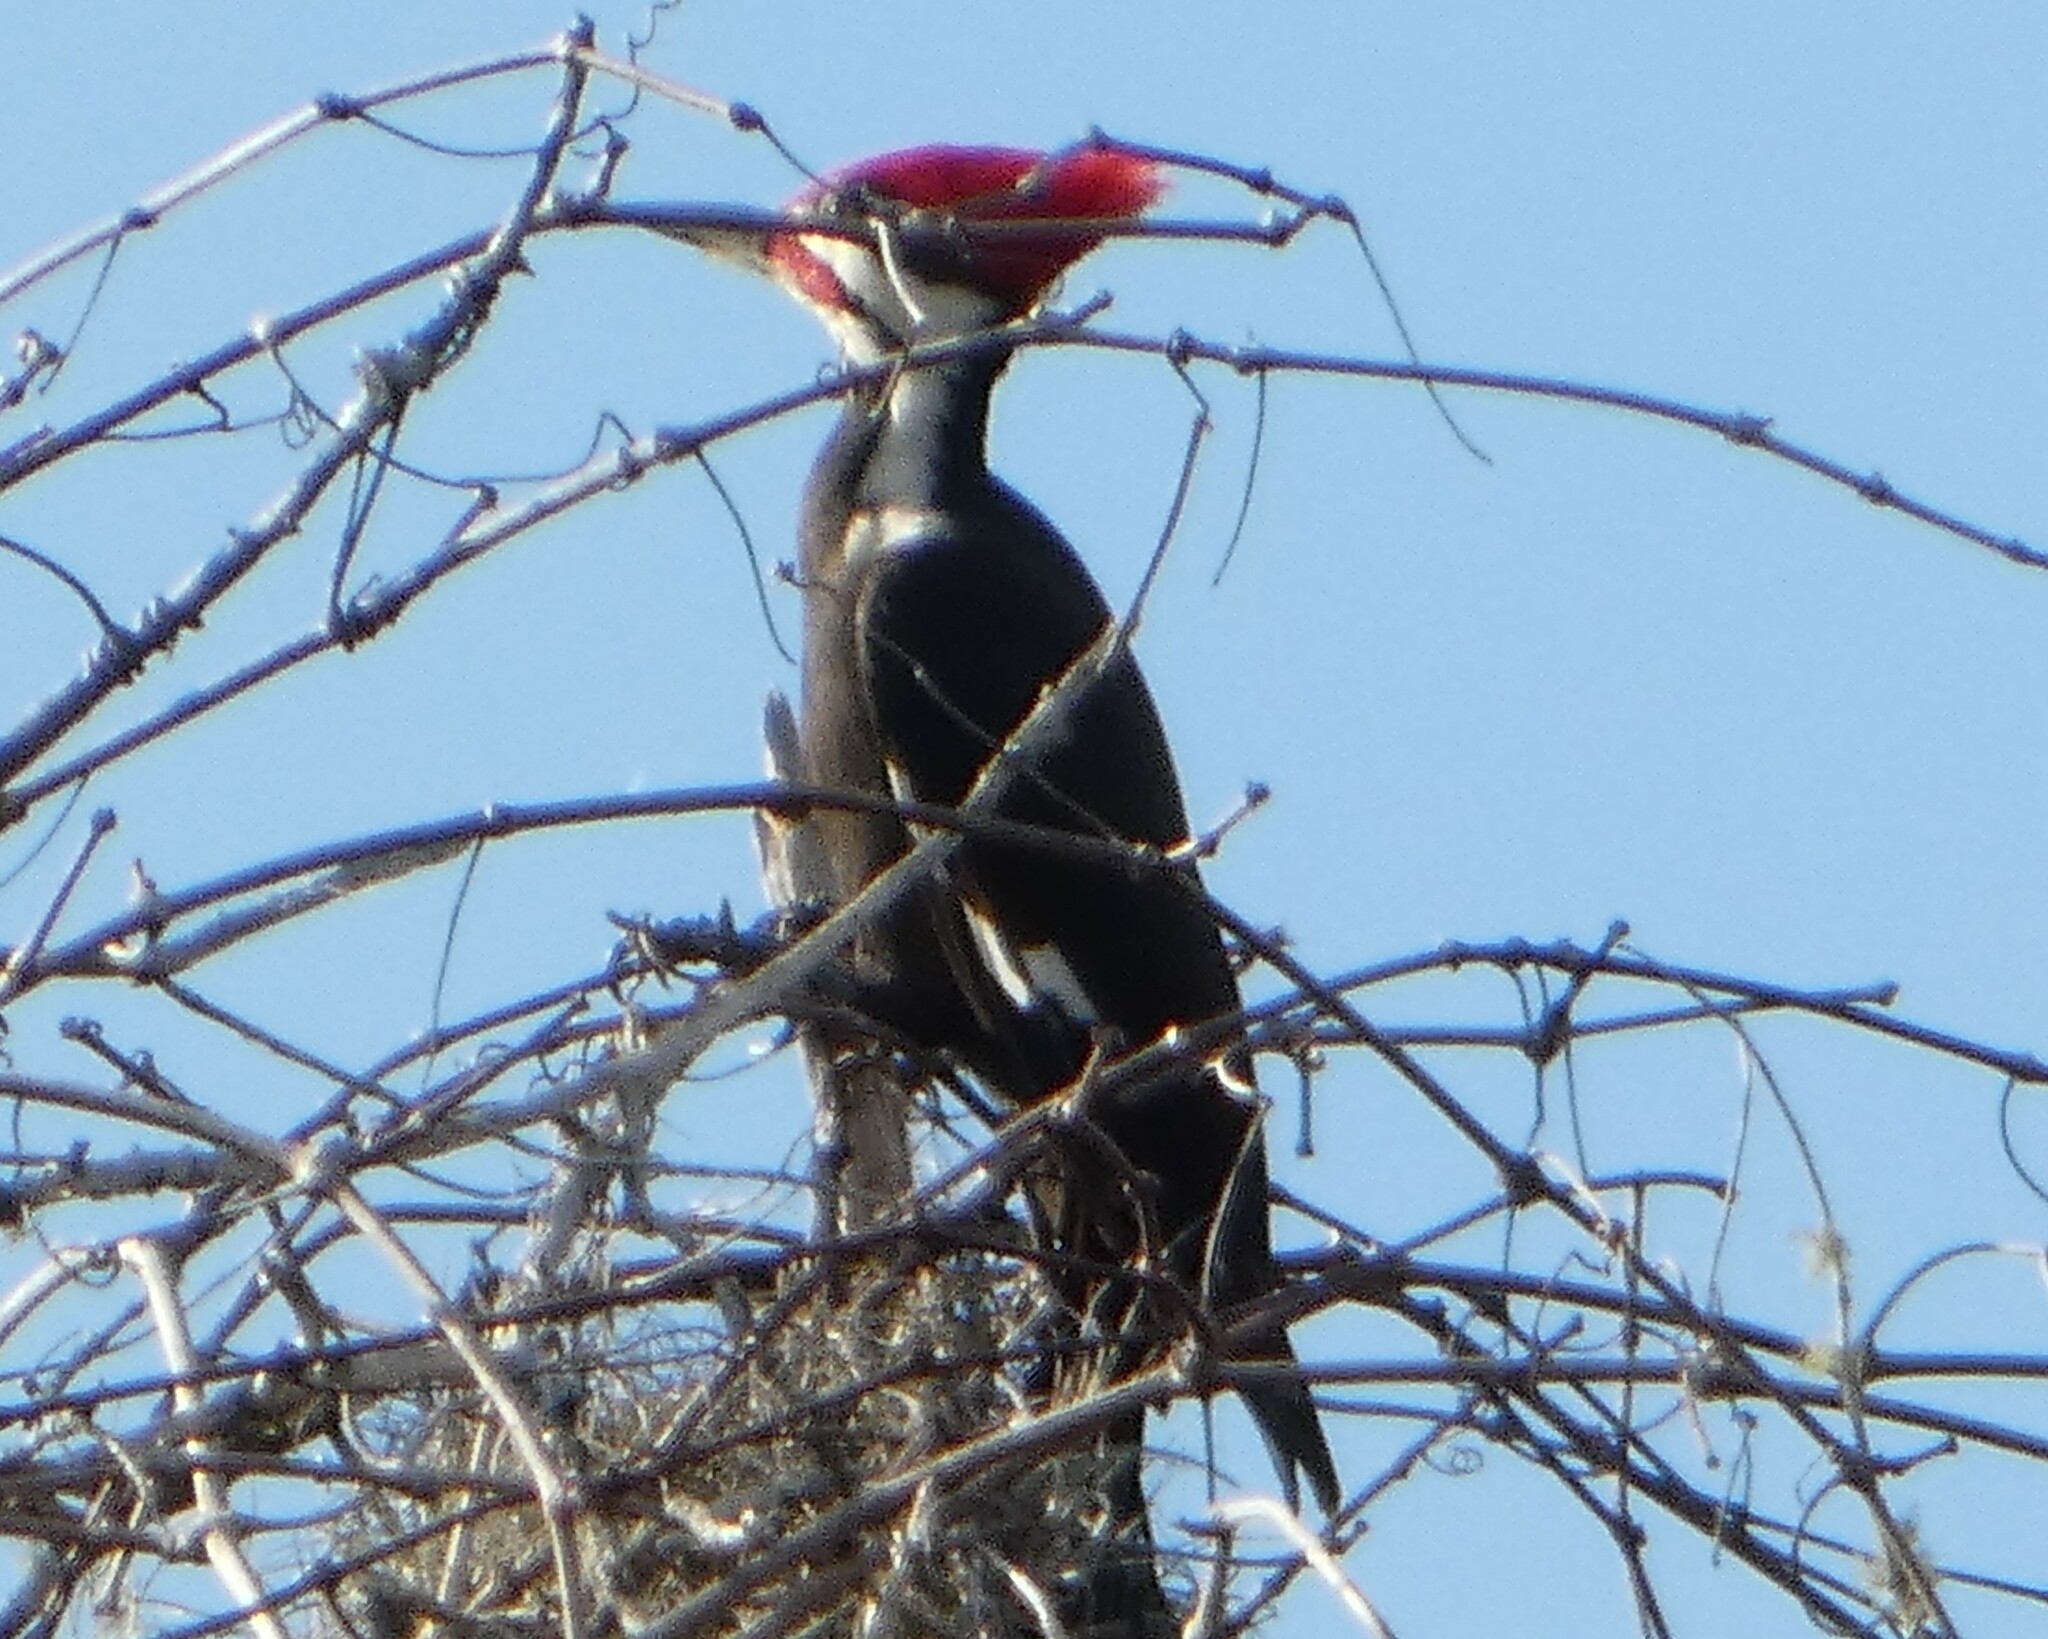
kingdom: Animalia
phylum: Chordata
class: Aves
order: Piciformes
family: Picidae
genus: Dryocopus
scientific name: Dryocopus pileatus
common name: Pileated woodpecker
